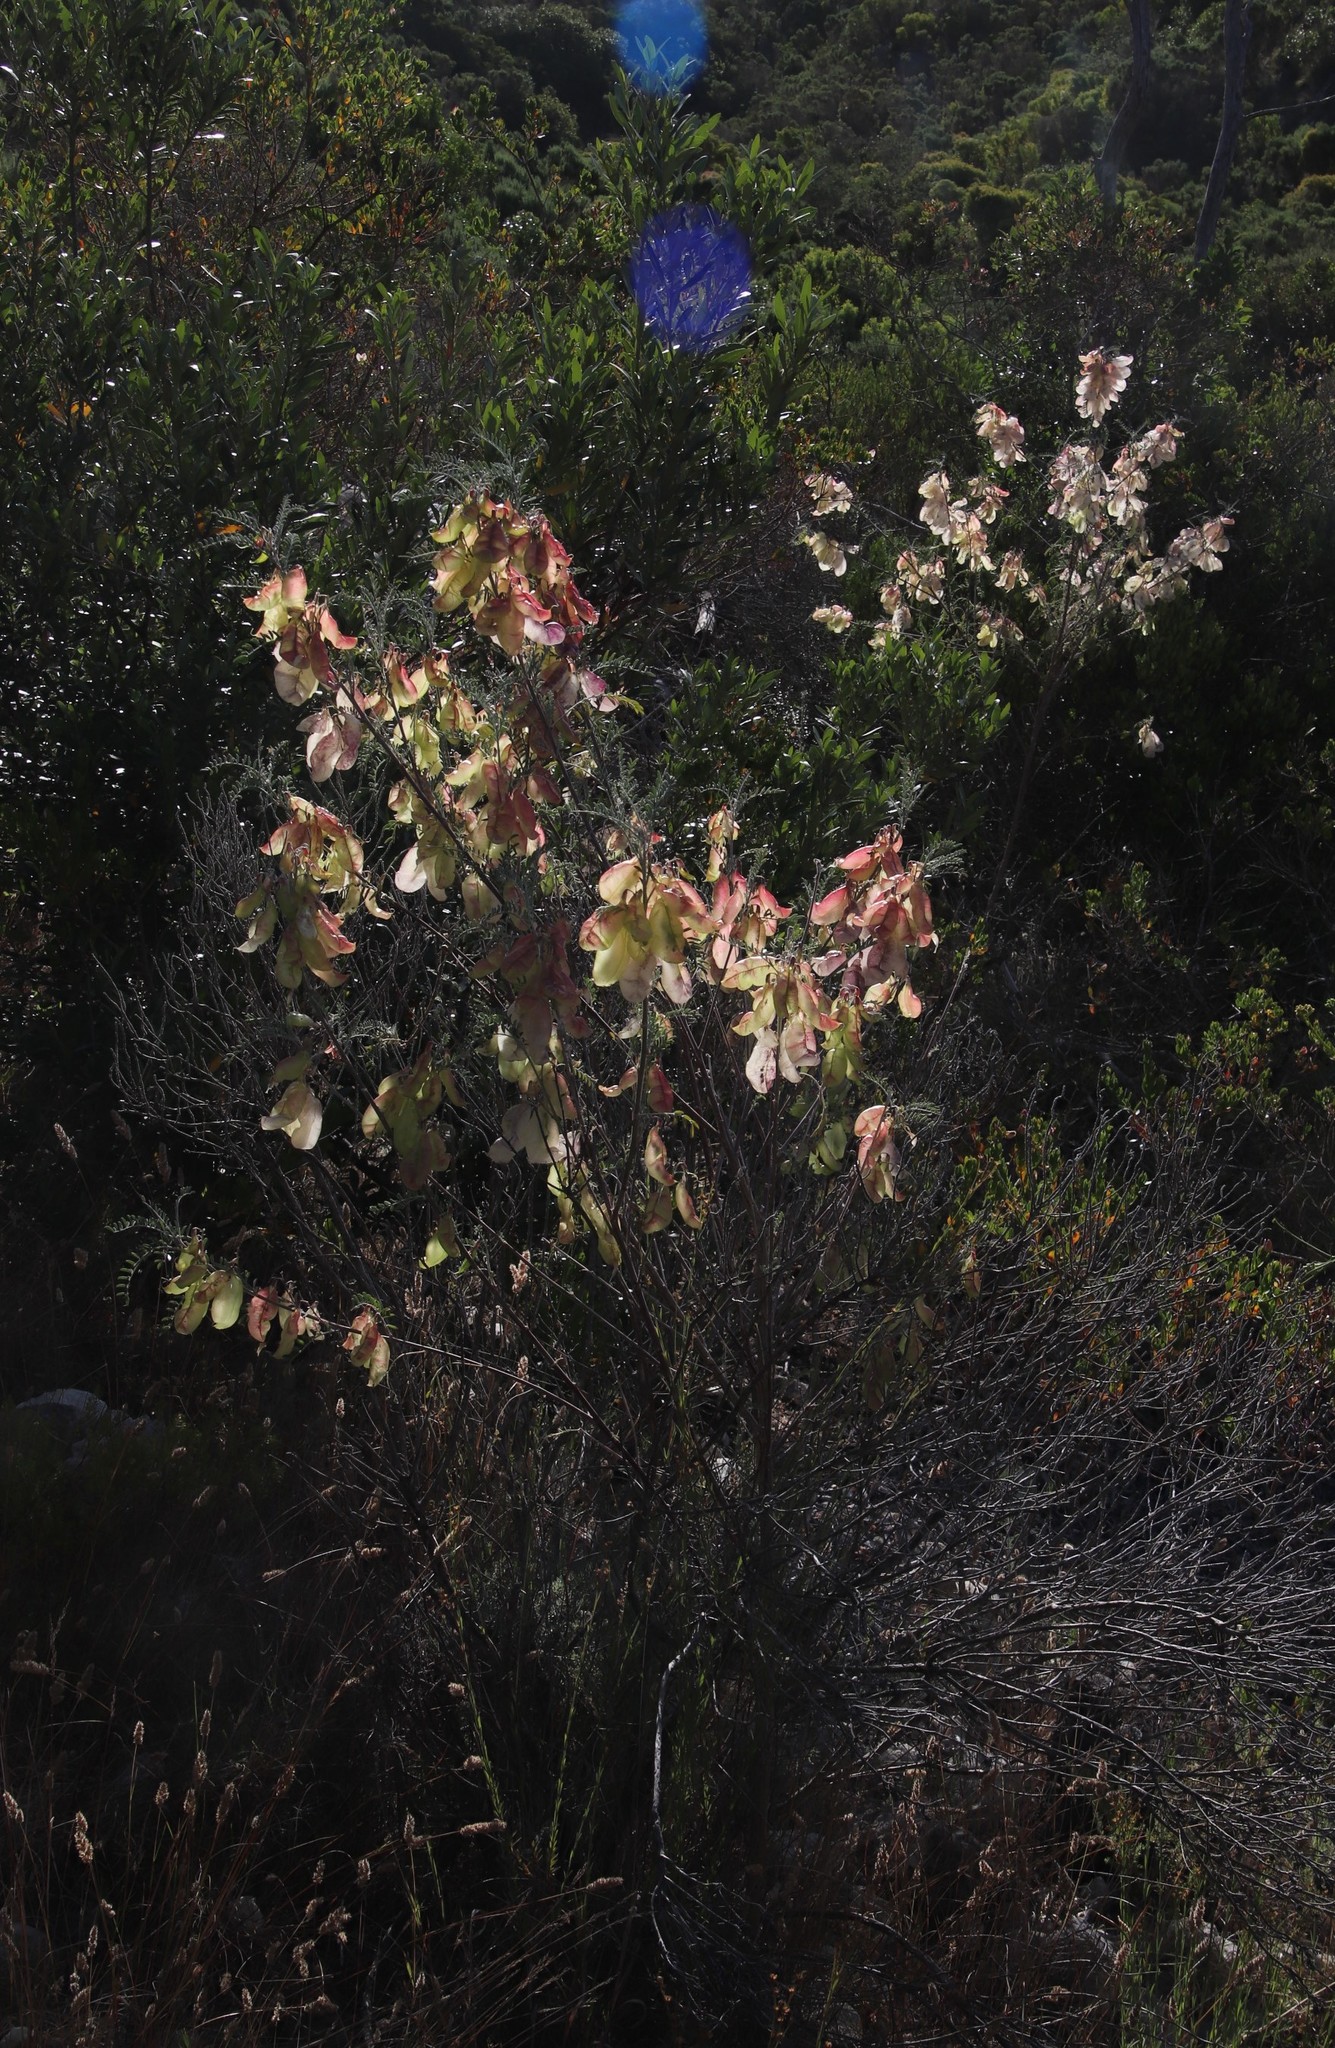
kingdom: Plantae
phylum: Tracheophyta
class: Magnoliopsida
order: Fabales
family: Fabaceae
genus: Lessertia
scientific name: Lessertia frutescens
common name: Balloon-pea
